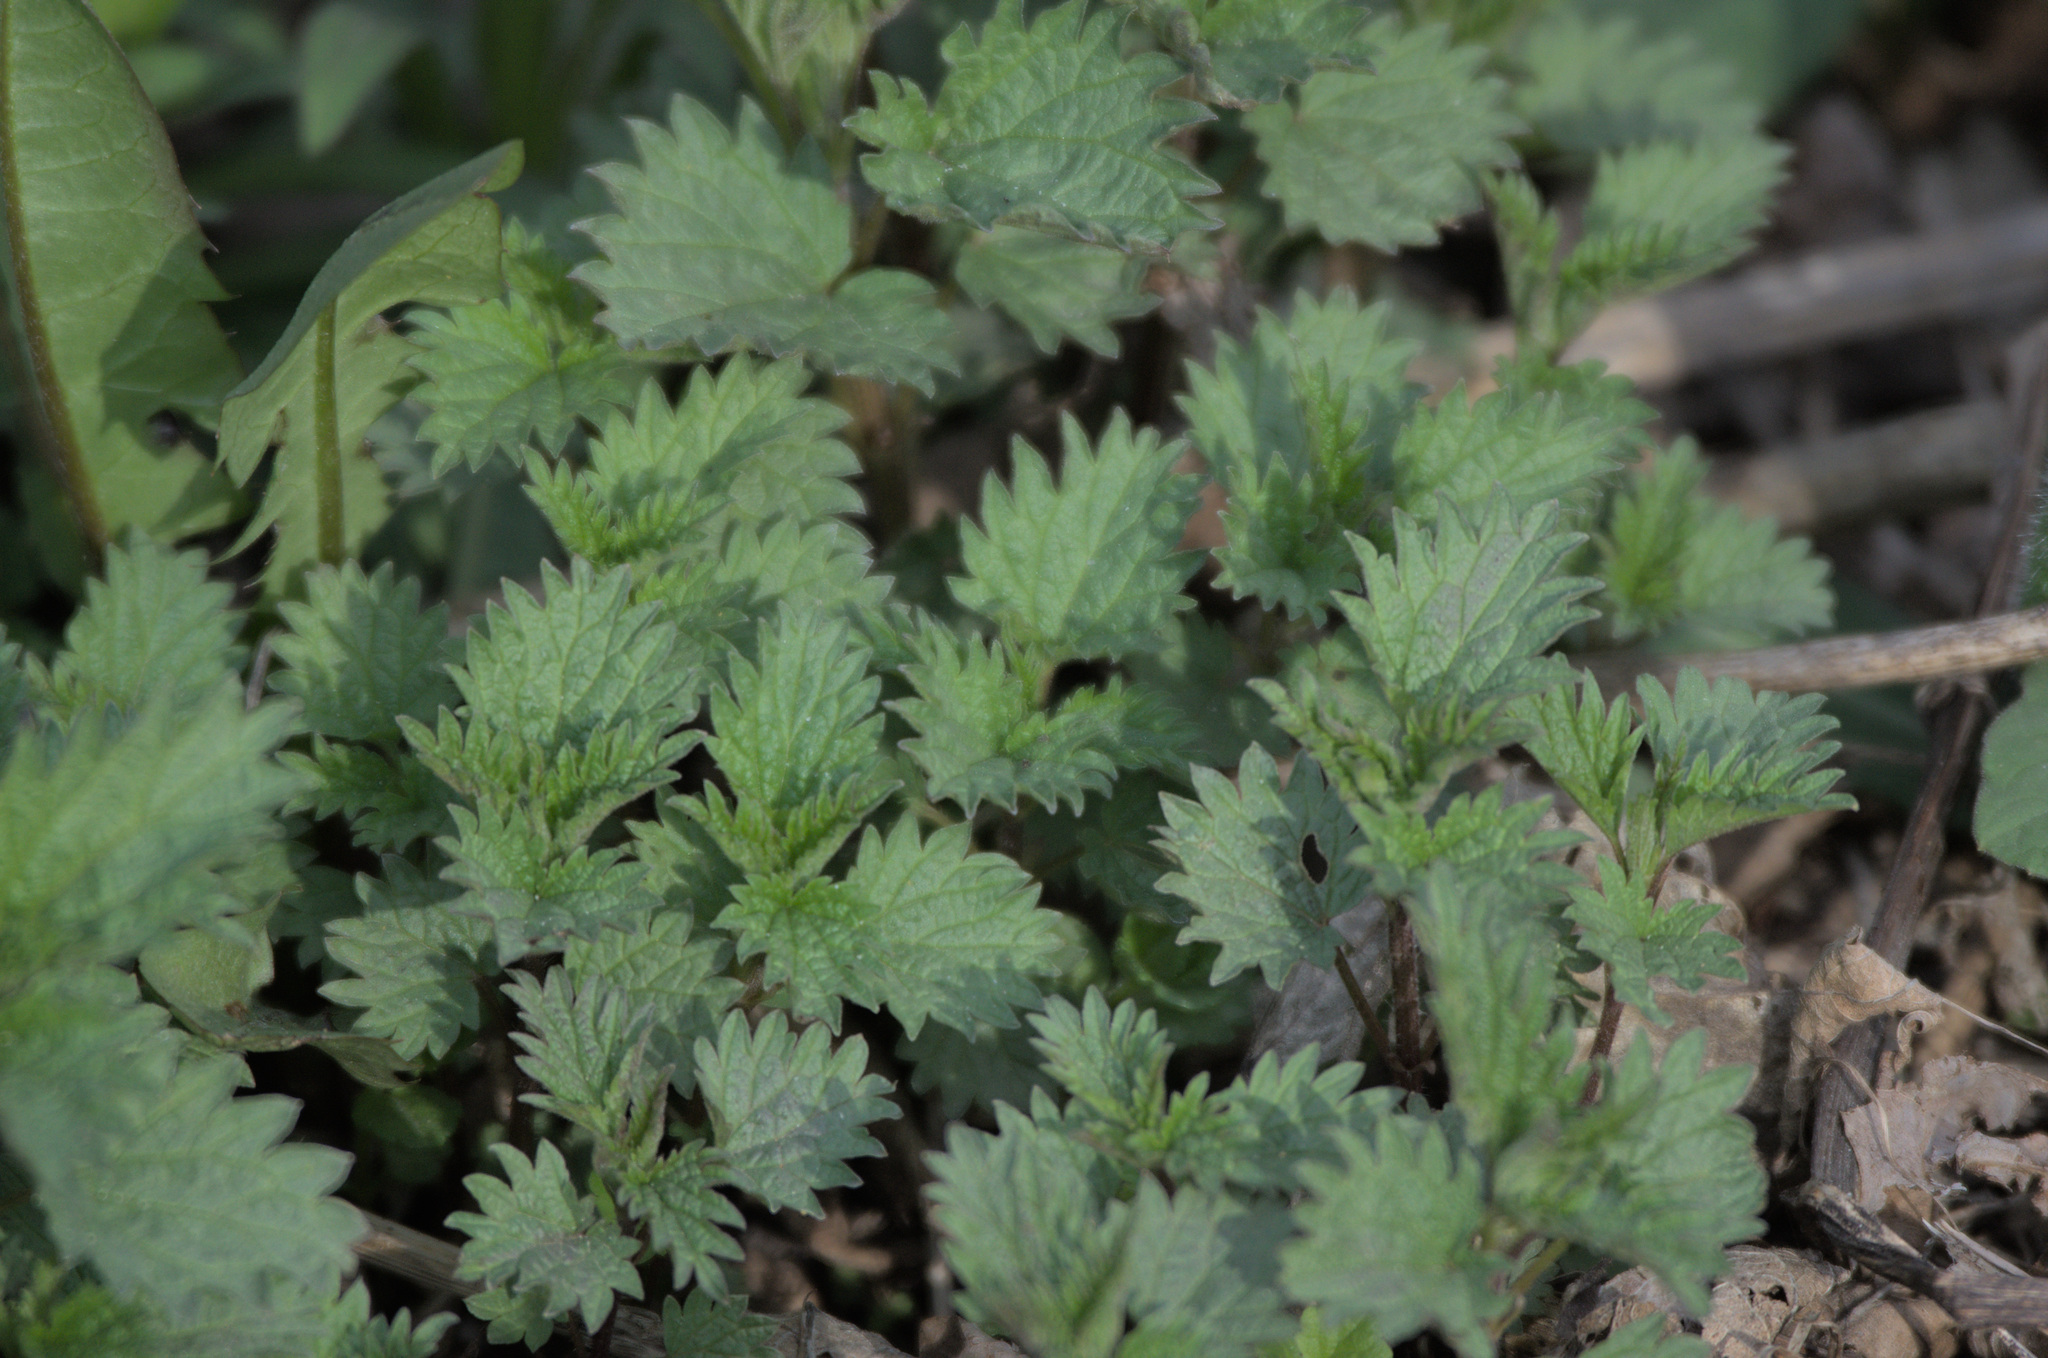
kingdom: Plantae
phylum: Tracheophyta
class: Magnoliopsida
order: Rosales
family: Urticaceae
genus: Urtica
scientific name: Urtica dioica
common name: Common nettle
